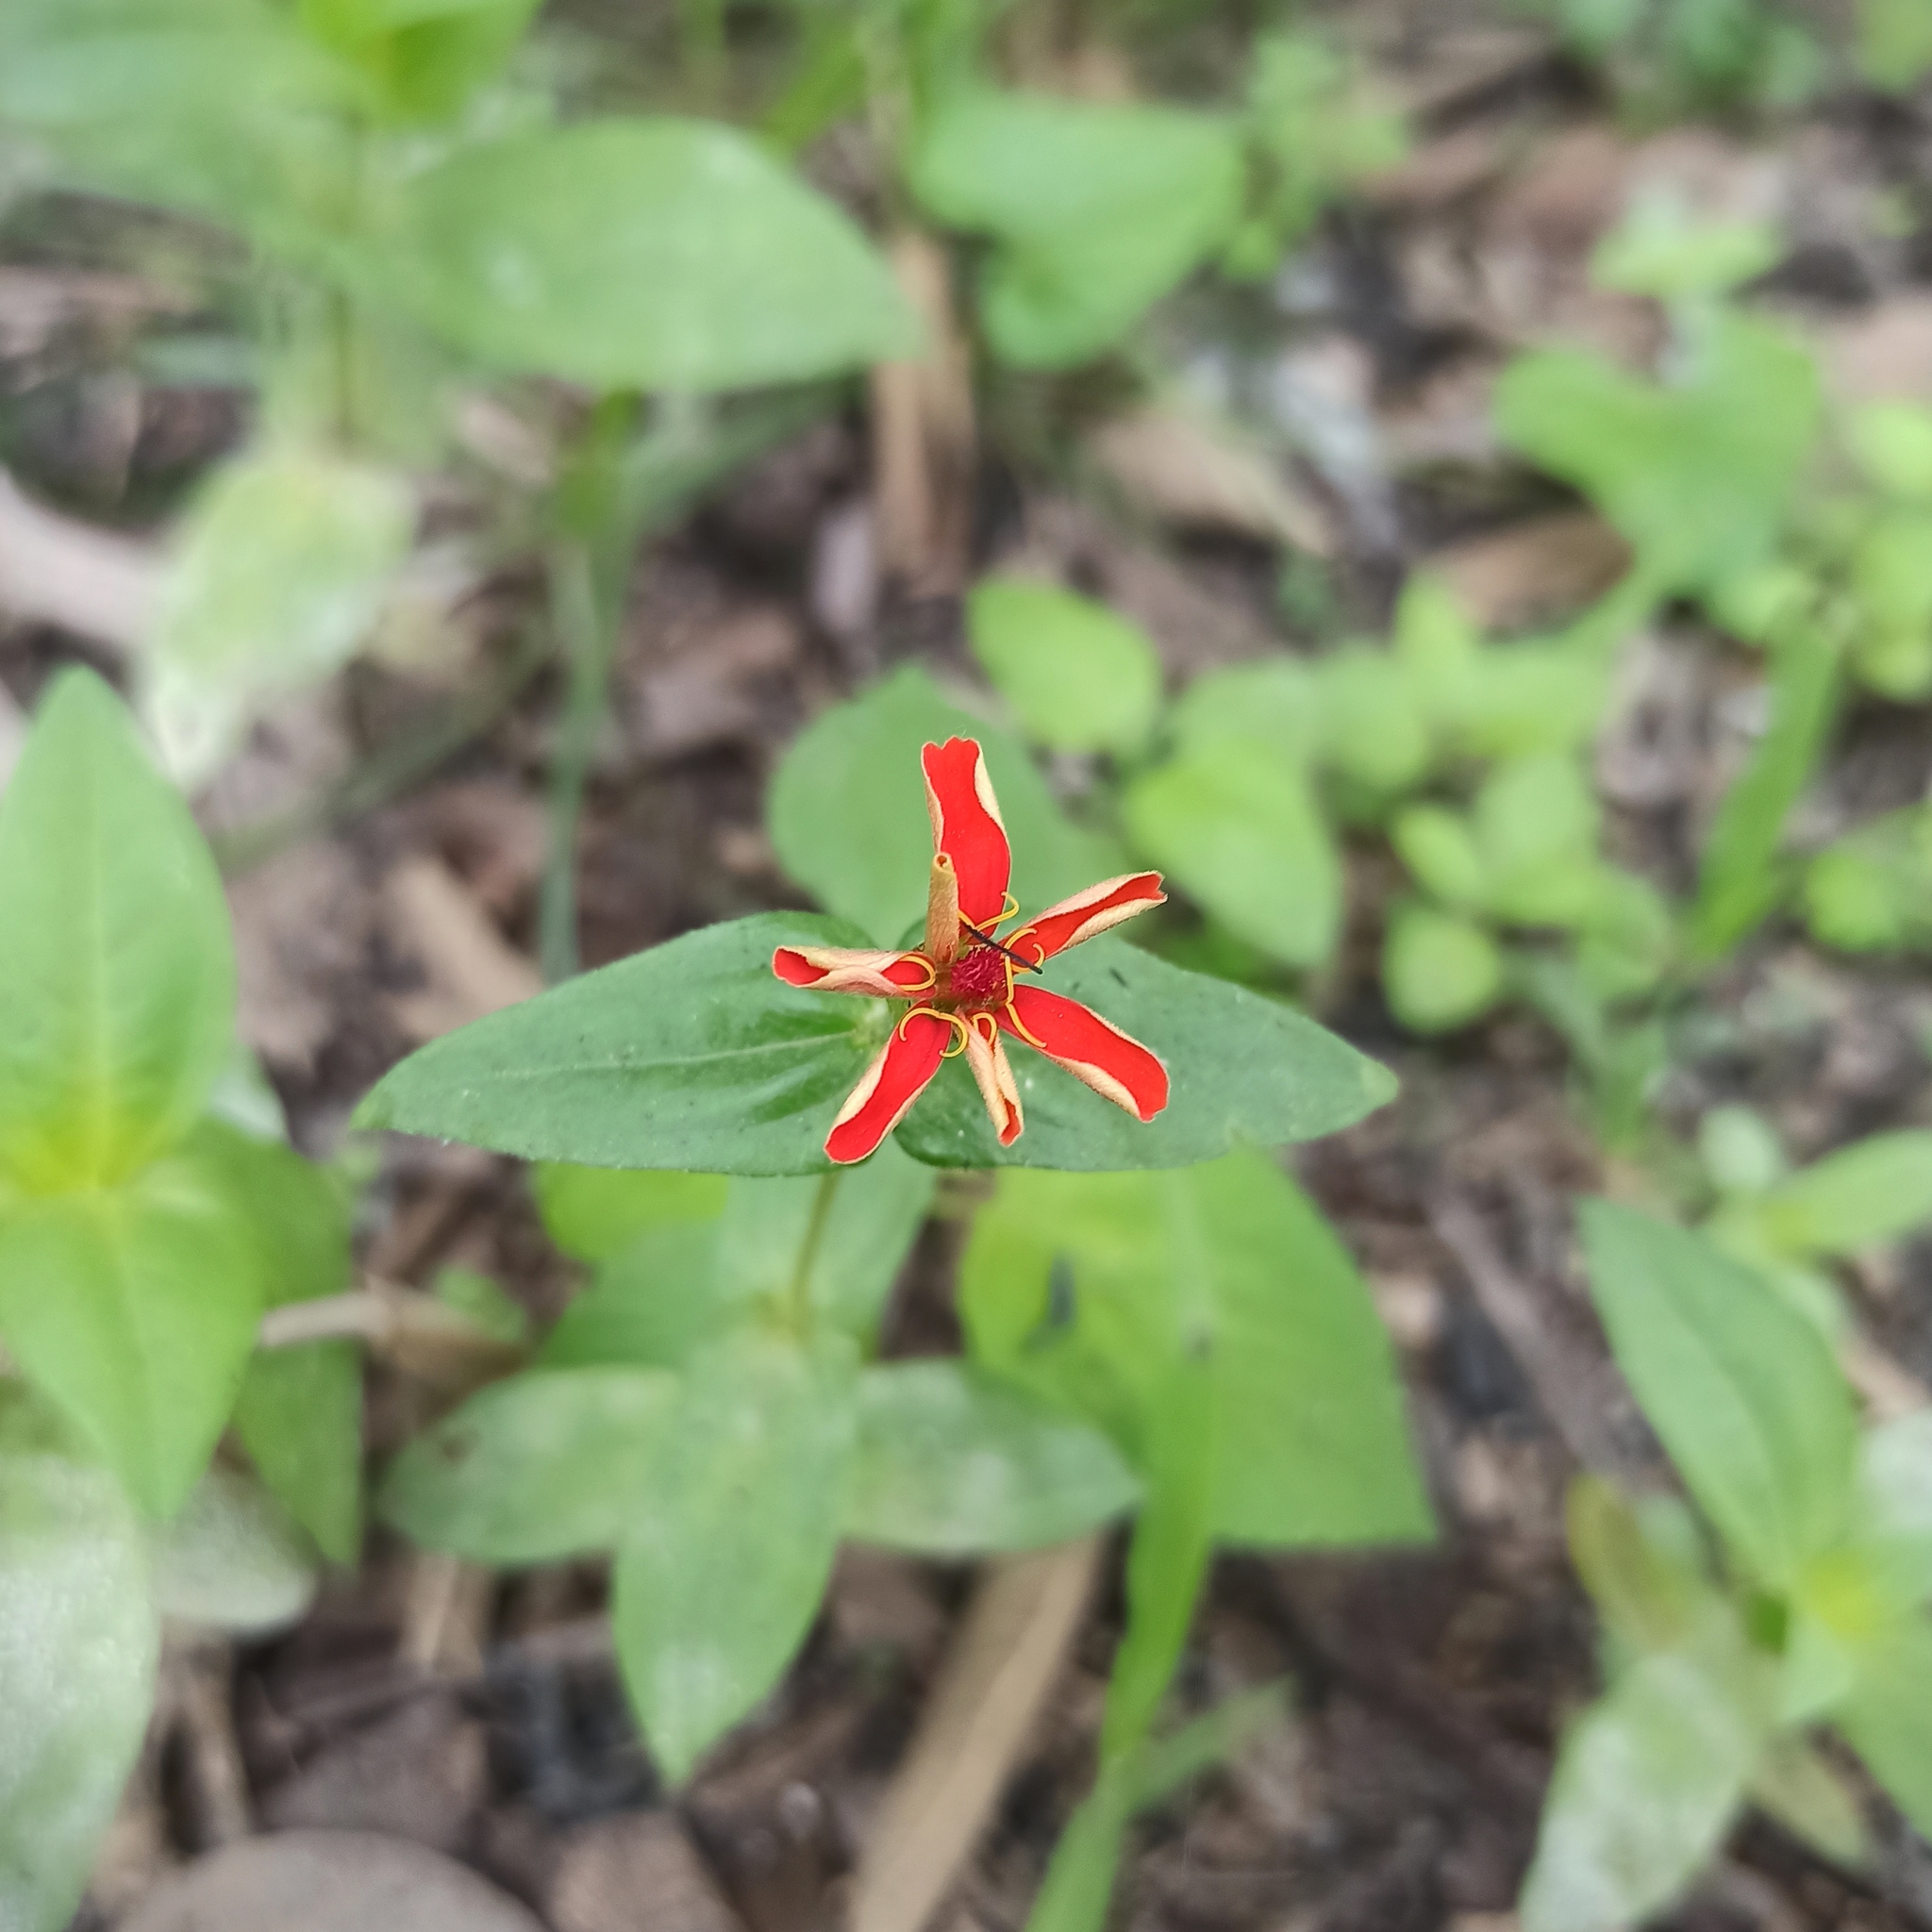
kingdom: Plantae
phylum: Tracheophyta
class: Magnoliopsida
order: Asterales
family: Asteraceae
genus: Zinnia
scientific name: Zinnia peruviana
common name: Peruvian zinnia
